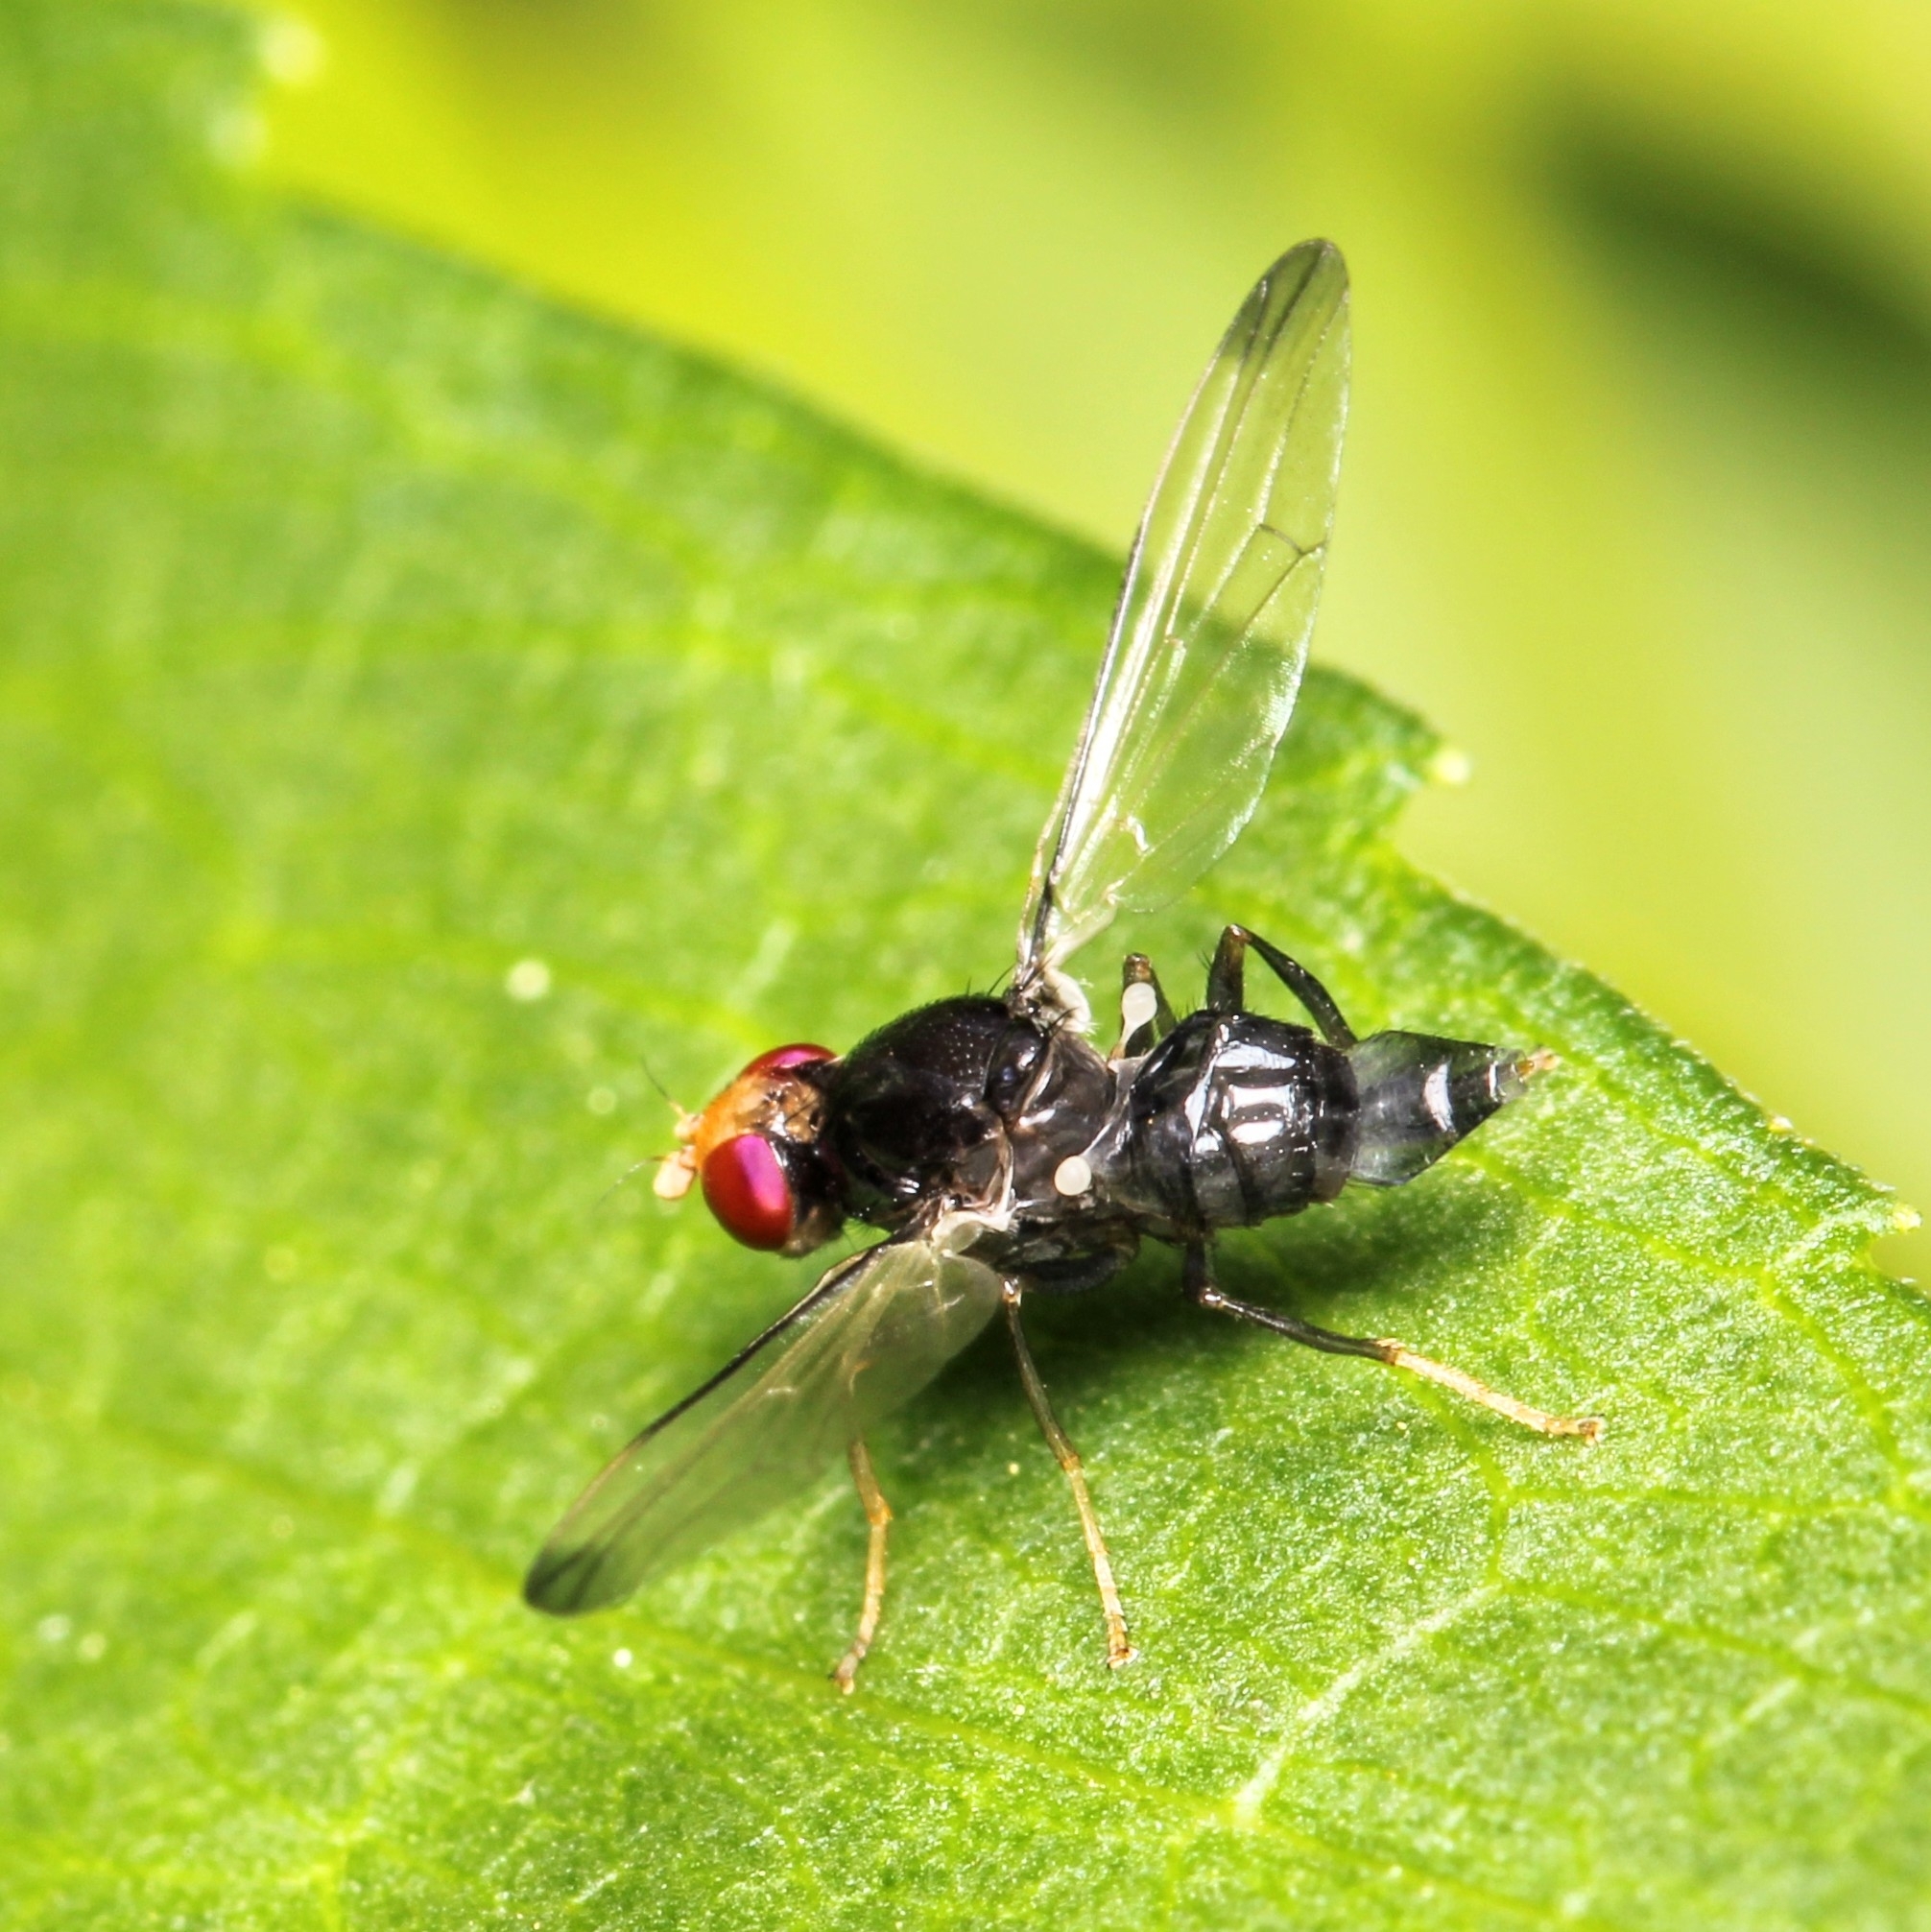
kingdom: Animalia
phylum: Arthropoda
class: Insecta
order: Diptera
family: Ulidiidae
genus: Pseudoseioptera
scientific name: Pseudoseioptera albipes
